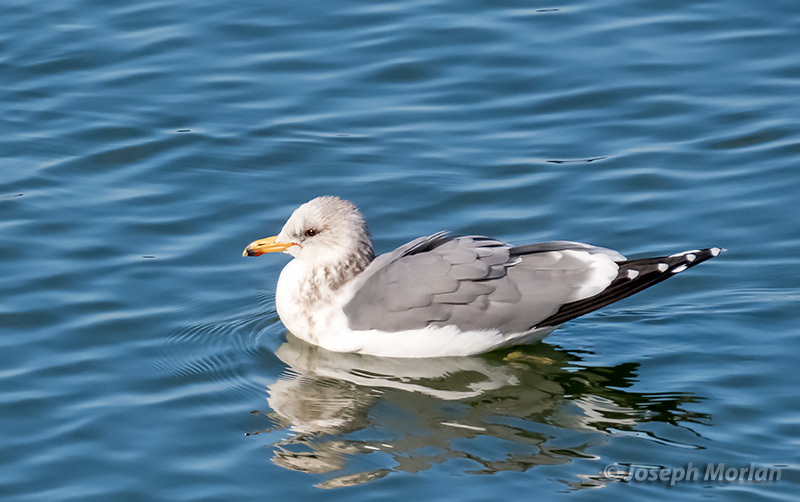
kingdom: Animalia
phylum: Chordata
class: Aves
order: Charadriiformes
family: Laridae
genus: Larus
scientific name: Larus californicus
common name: California gull
